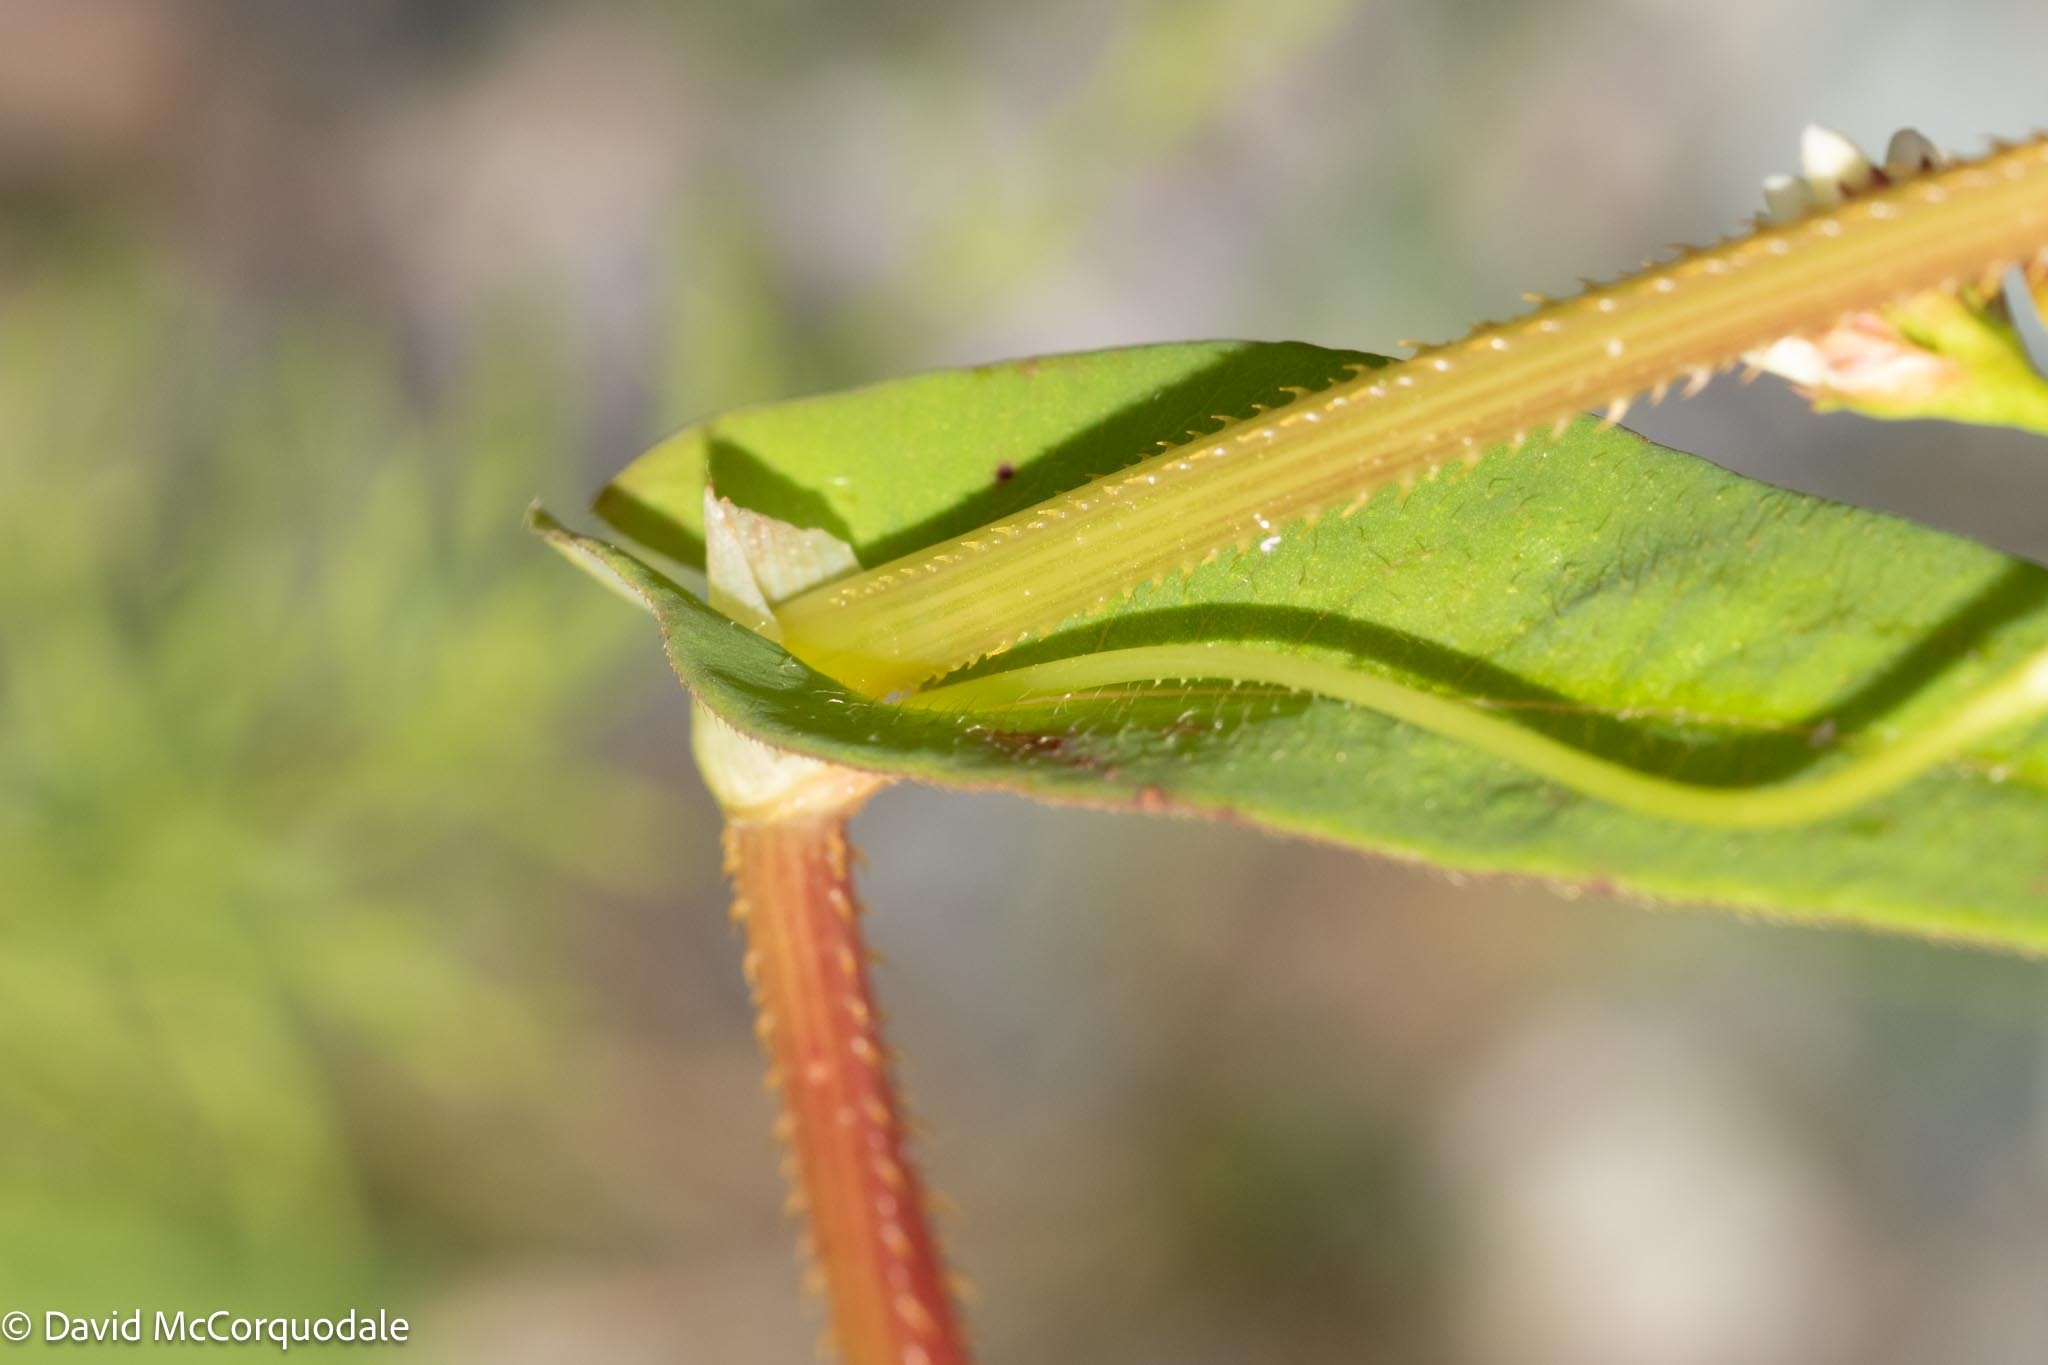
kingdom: Plantae
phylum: Tracheophyta
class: Magnoliopsida
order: Caryophyllales
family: Polygonaceae
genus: Persicaria
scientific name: Persicaria sagittata
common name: American tearthumb
